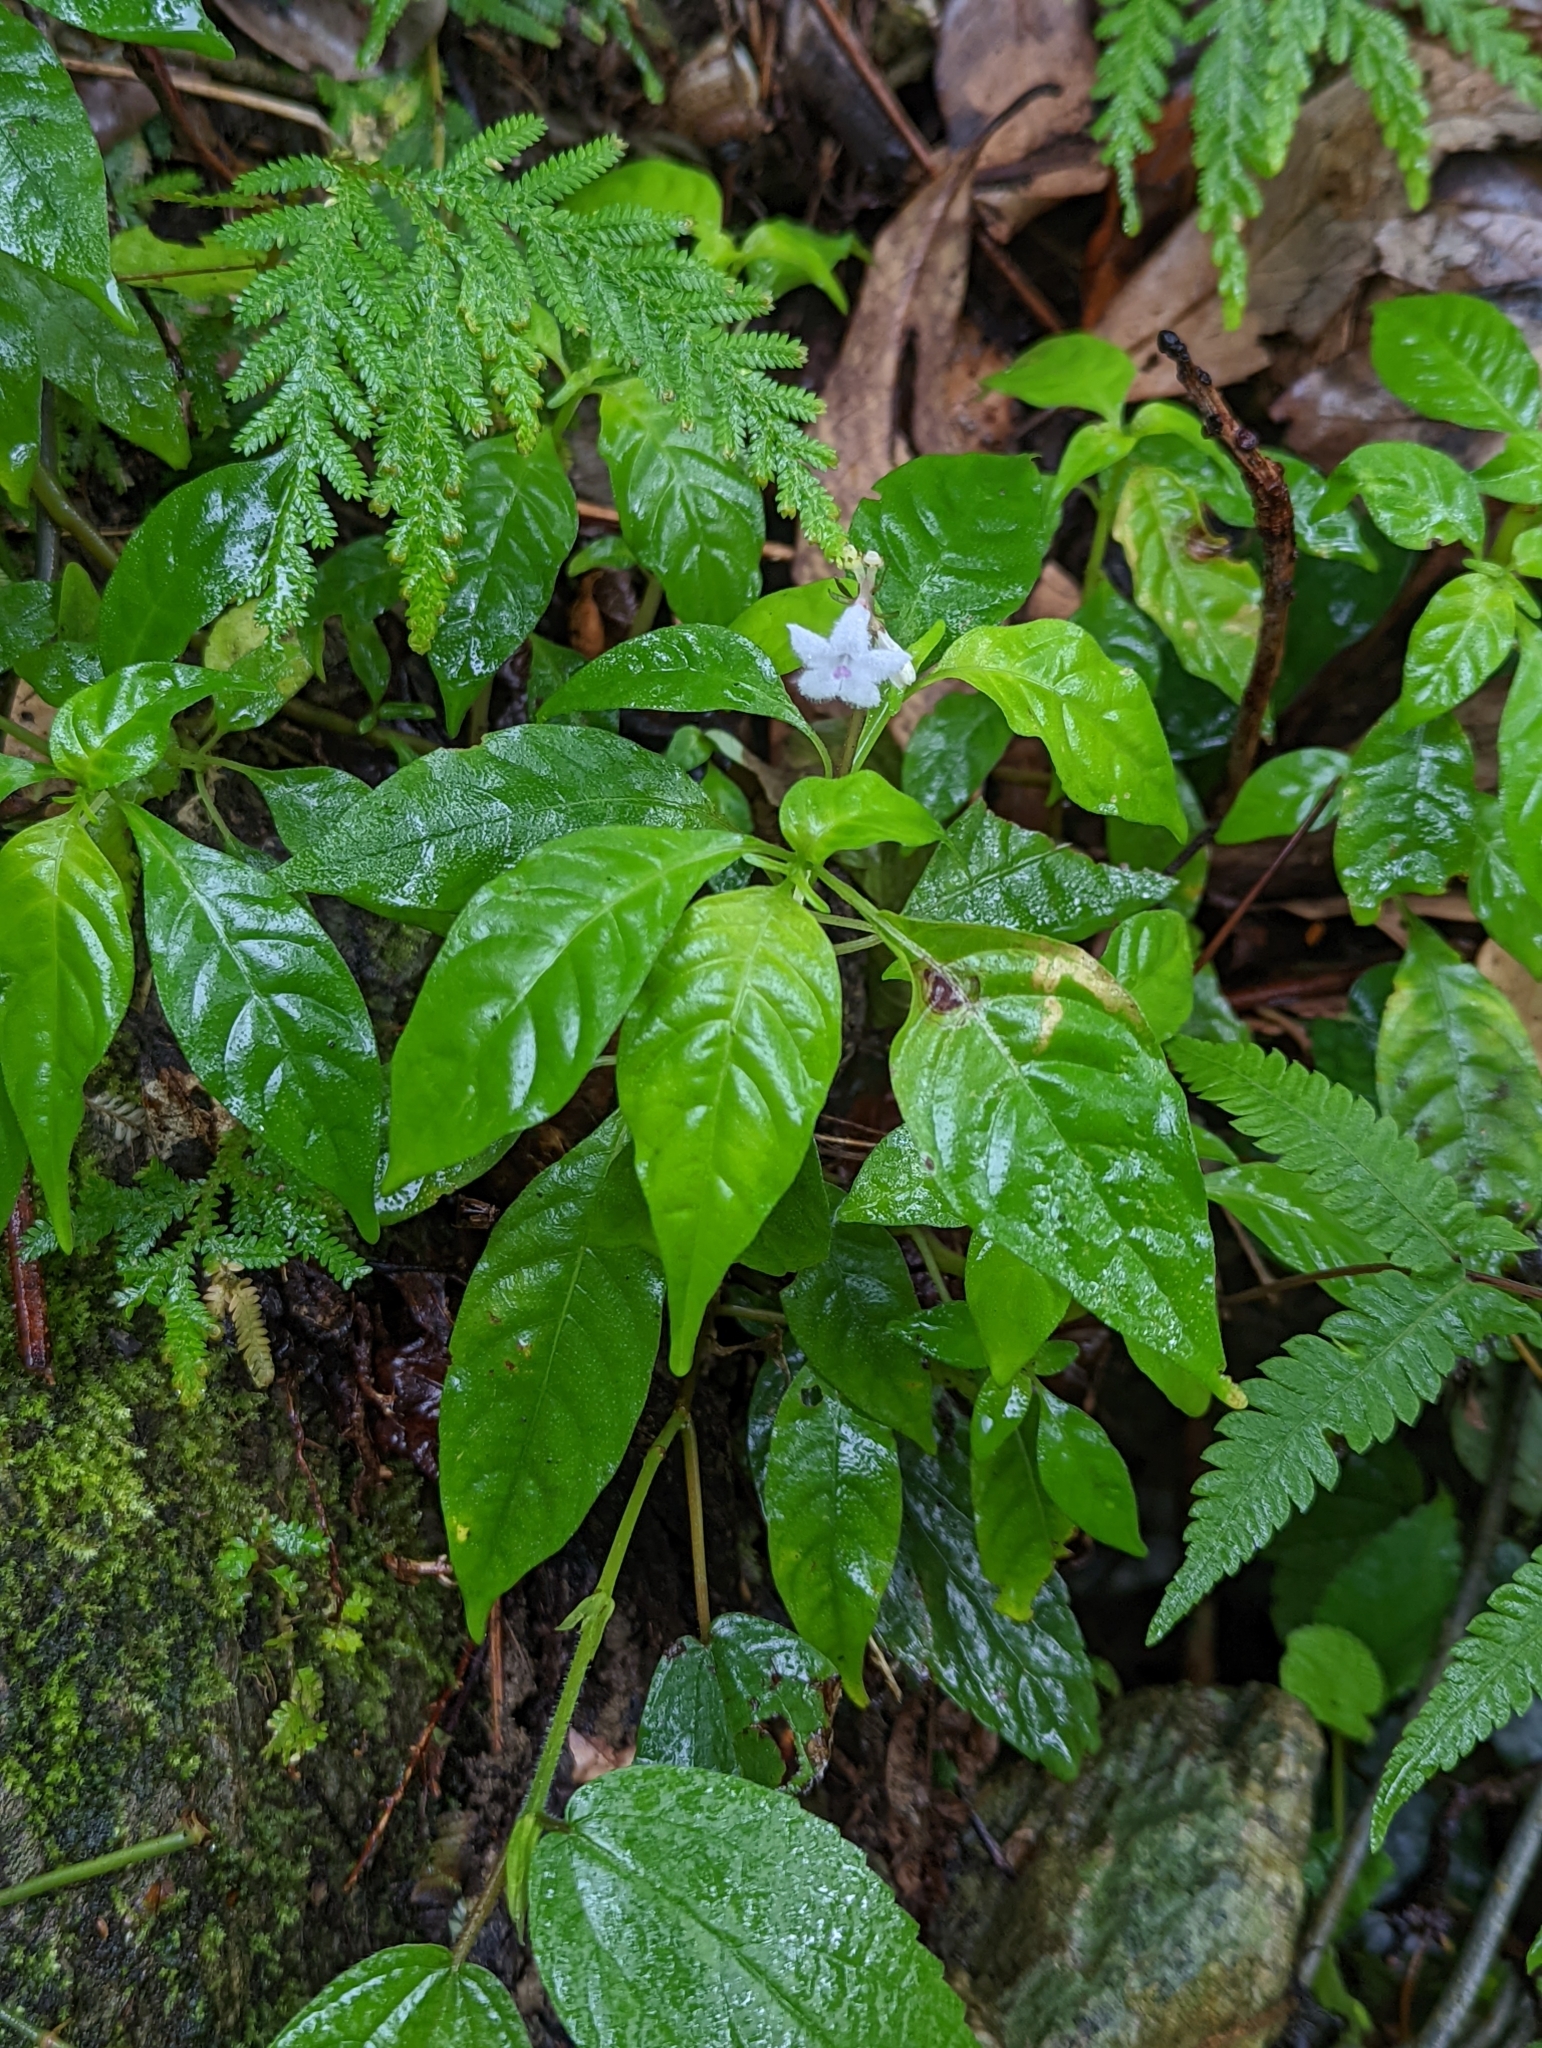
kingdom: Plantae
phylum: Tracheophyta
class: Magnoliopsida
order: Gentianales
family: Rubiaceae
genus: Ophiorrhiza
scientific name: Ophiorrhiza japonica
